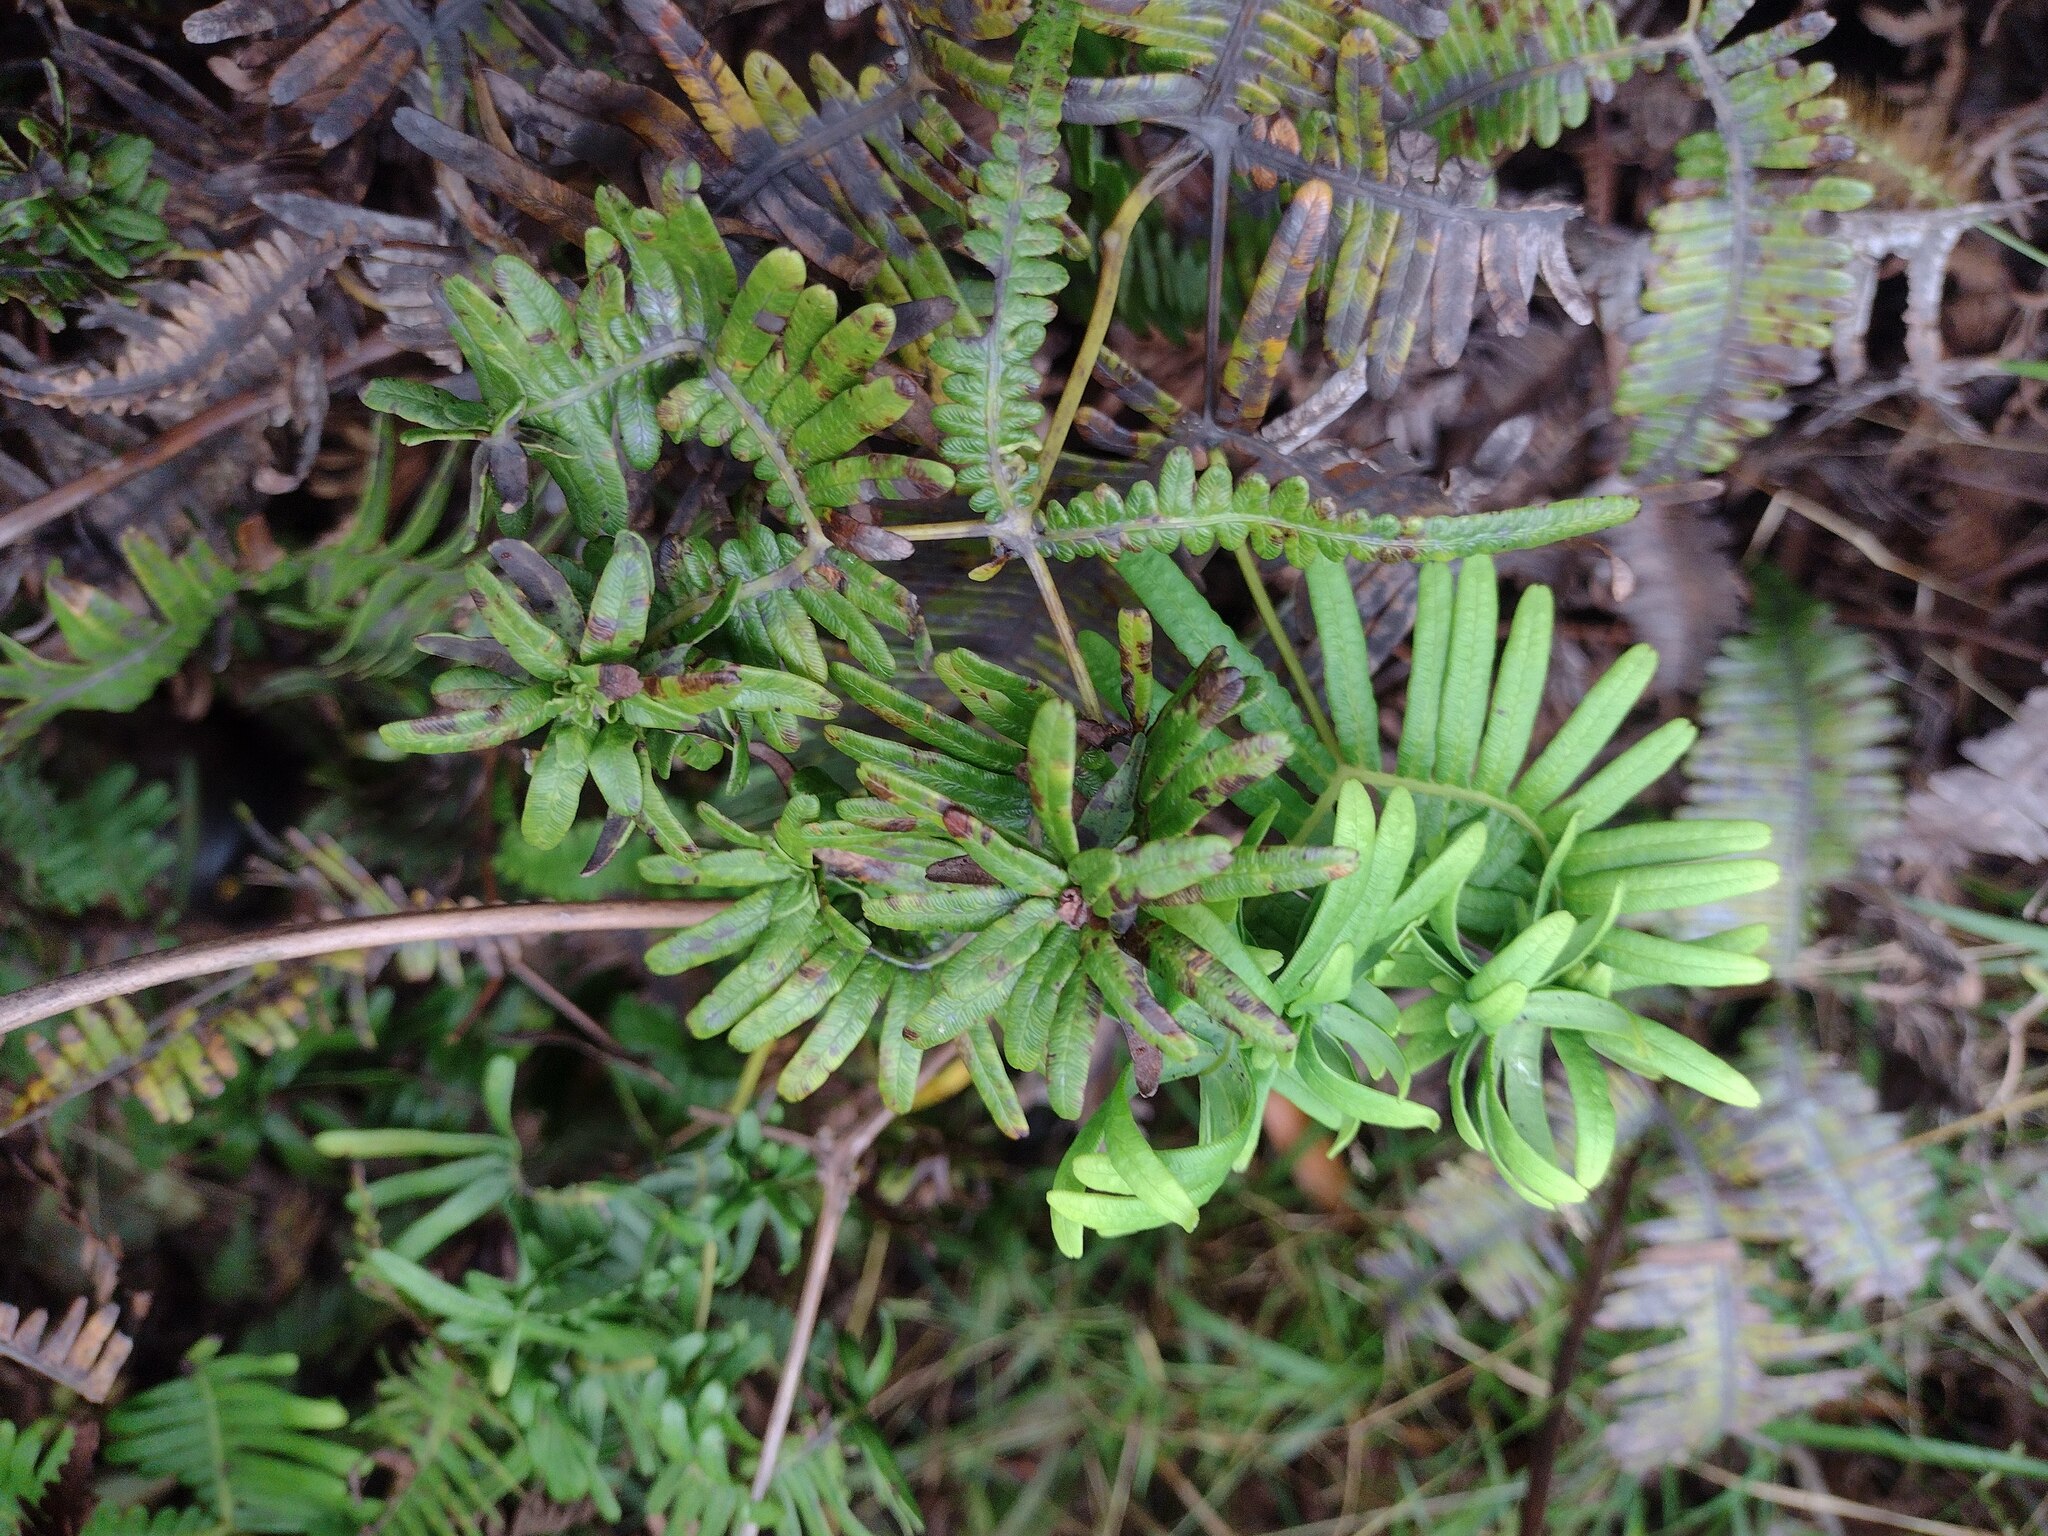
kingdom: Animalia
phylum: Arthropoda
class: Insecta
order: Hemiptera
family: Pseudococcidae
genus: Nesopedronia
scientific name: Nesopedronia hawaiiensis
